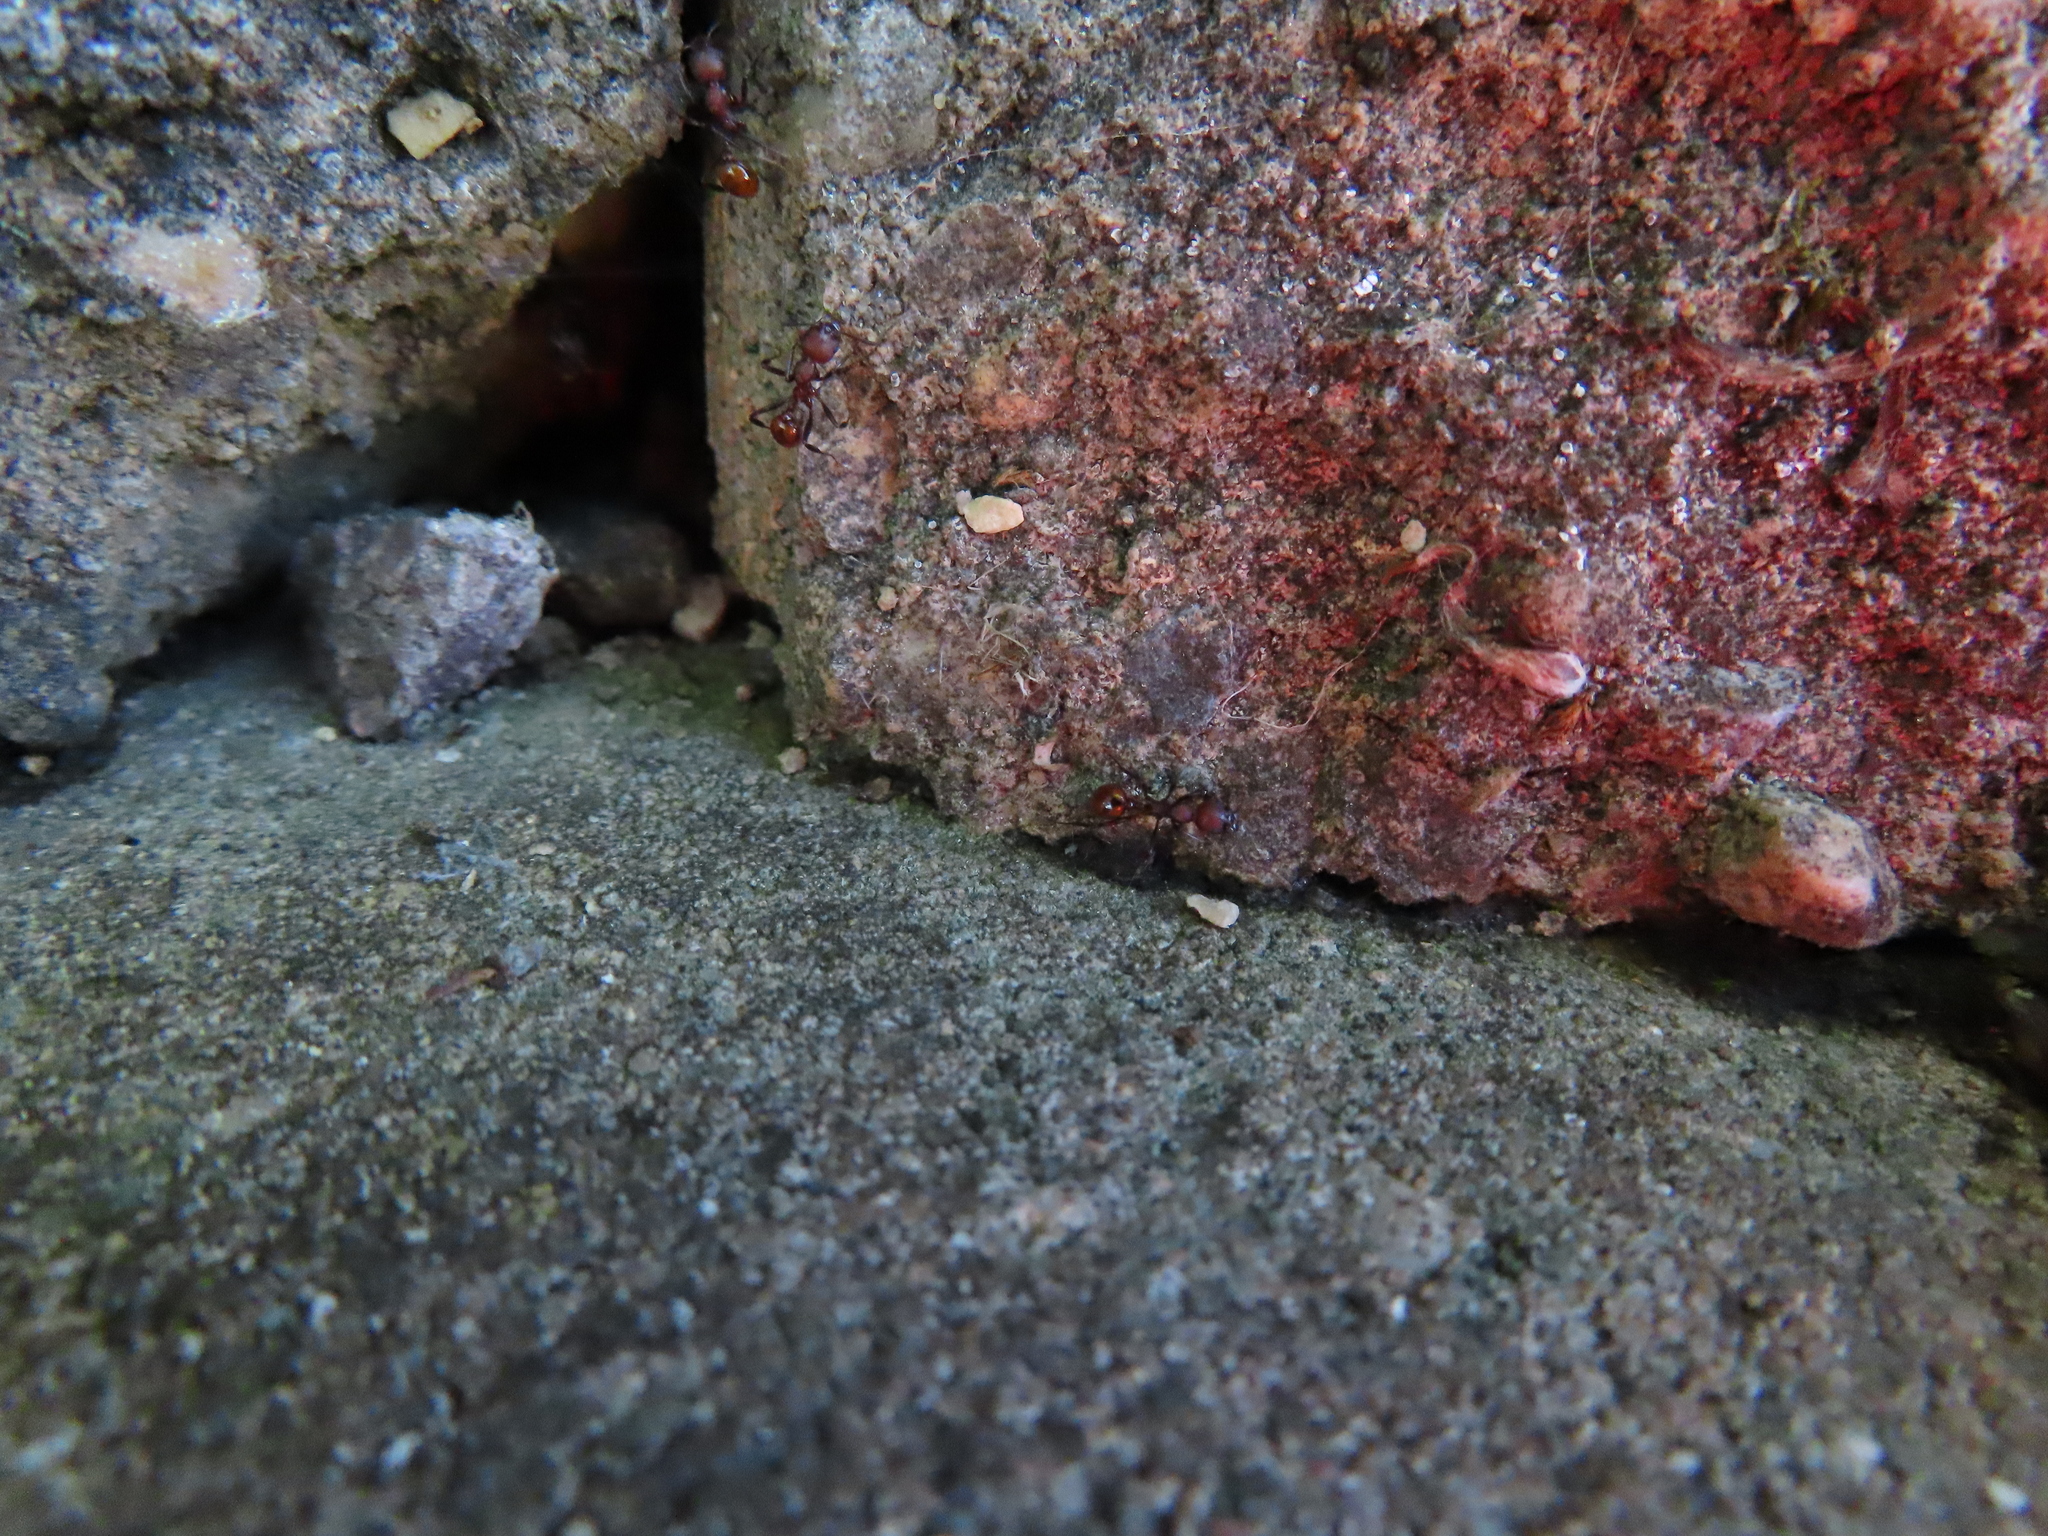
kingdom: Animalia
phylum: Arthropoda
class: Insecta
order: Hymenoptera
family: Formicidae
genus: Aphaenogaster
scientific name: Aphaenogaster tennesseensis
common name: Tennessee thread-waisted ant
